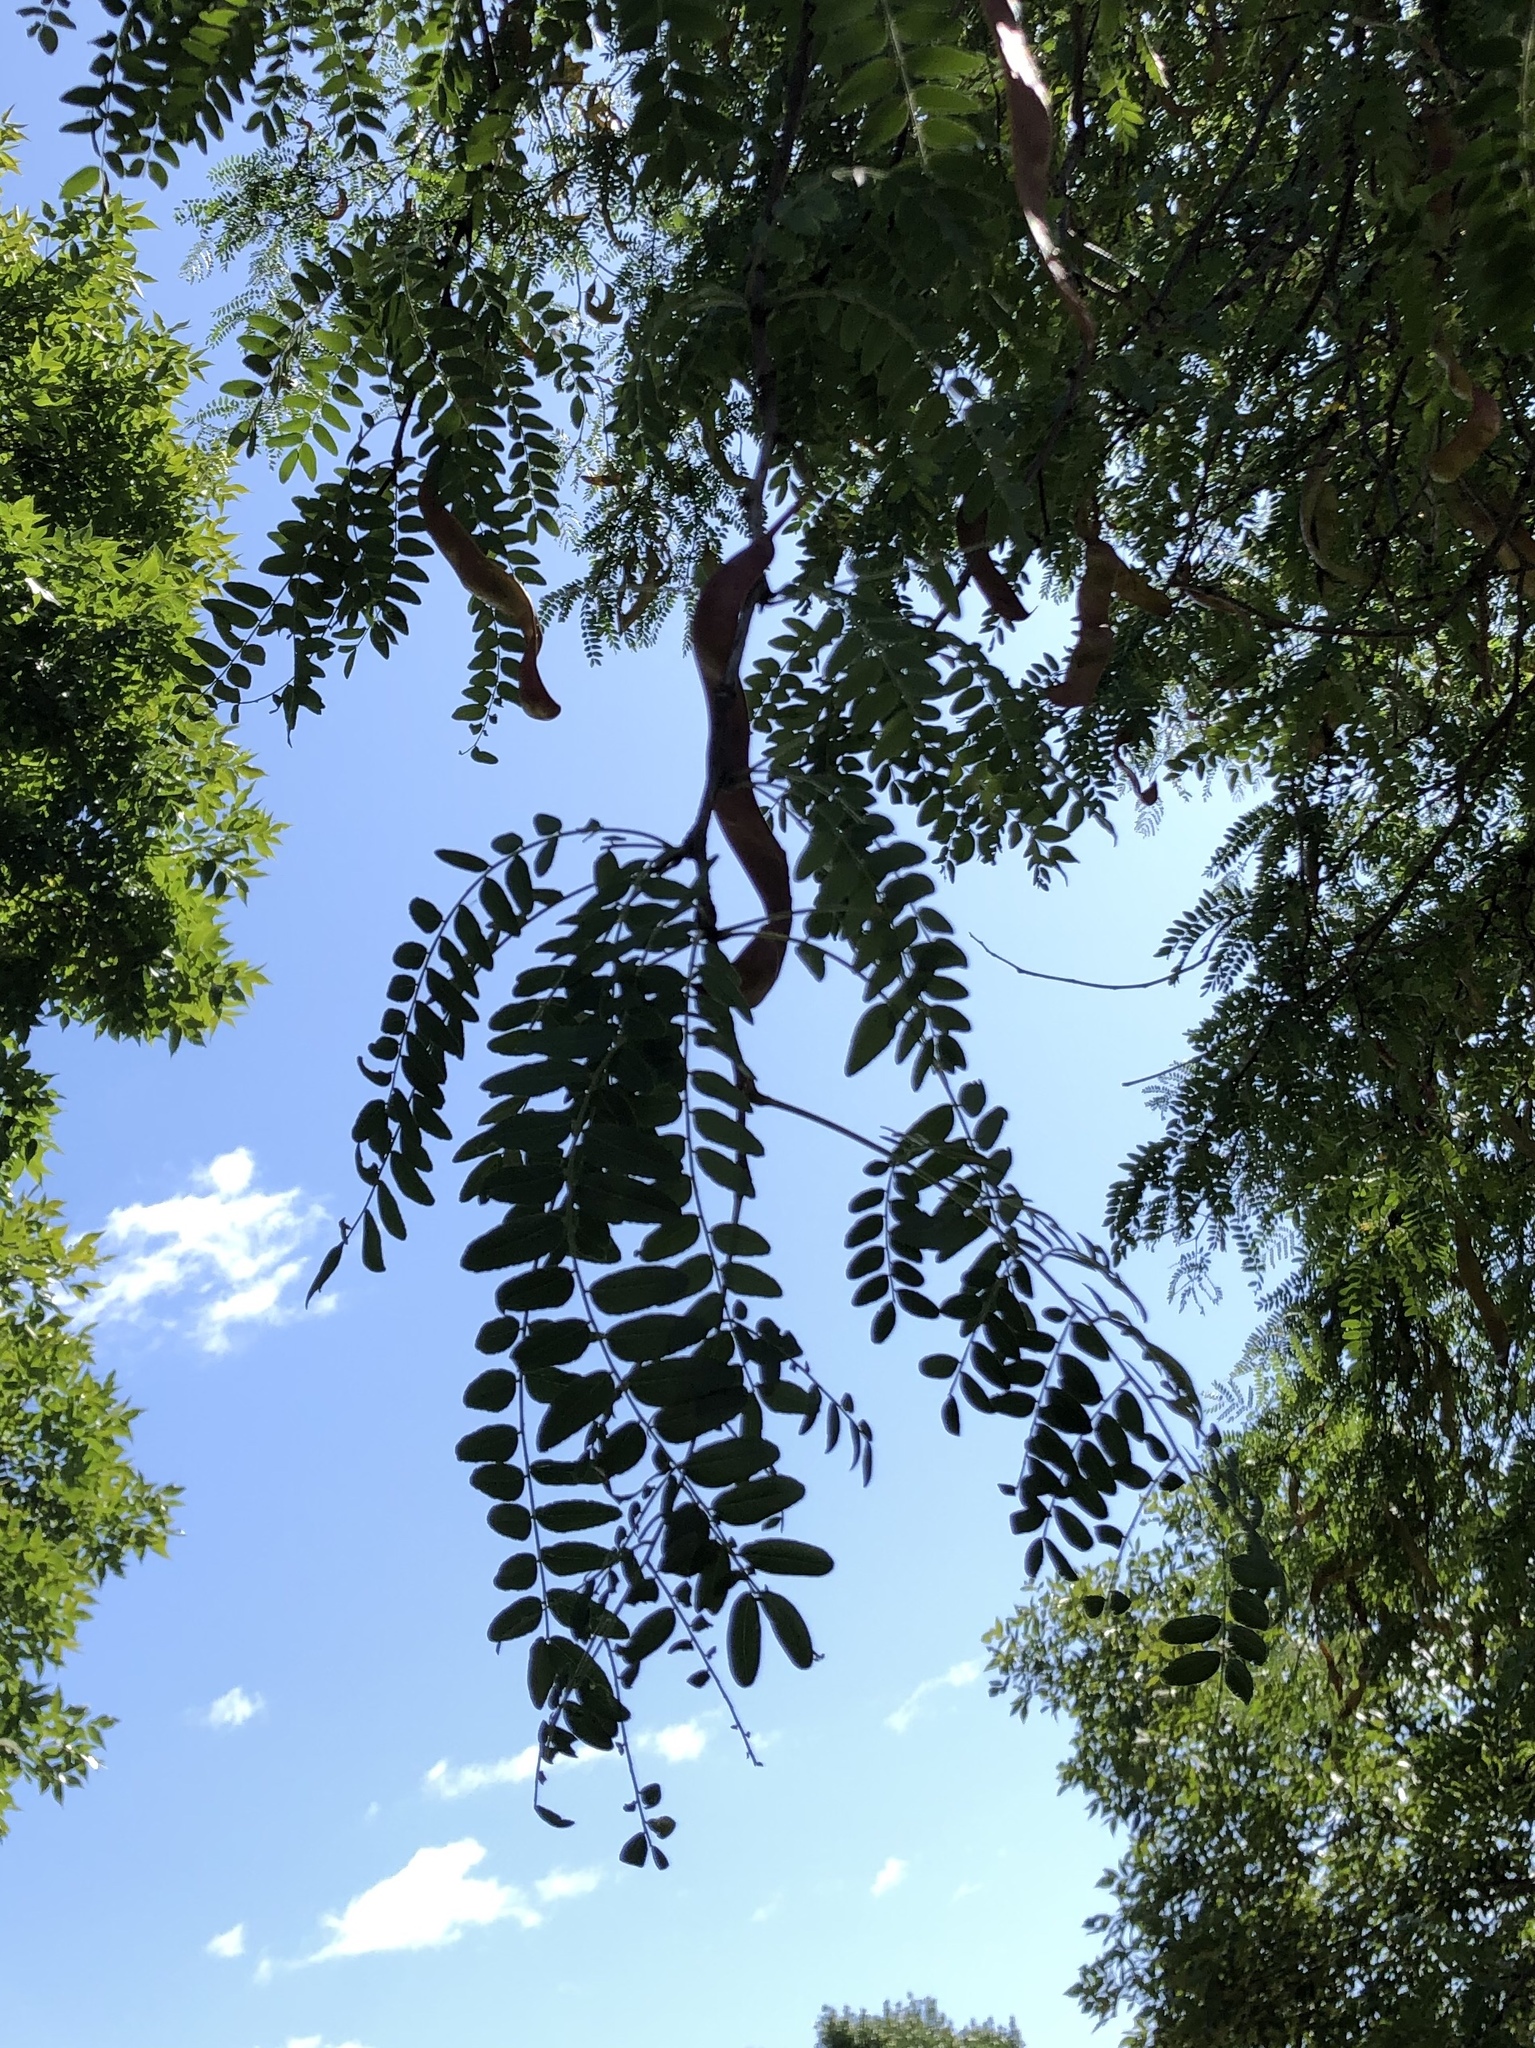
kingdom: Plantae
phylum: Tracheophyta
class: Magnoliopsida
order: Fabales
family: Fabaceae
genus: Gleditsia
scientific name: Gleditsia triacanthos
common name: Common honeylocust
